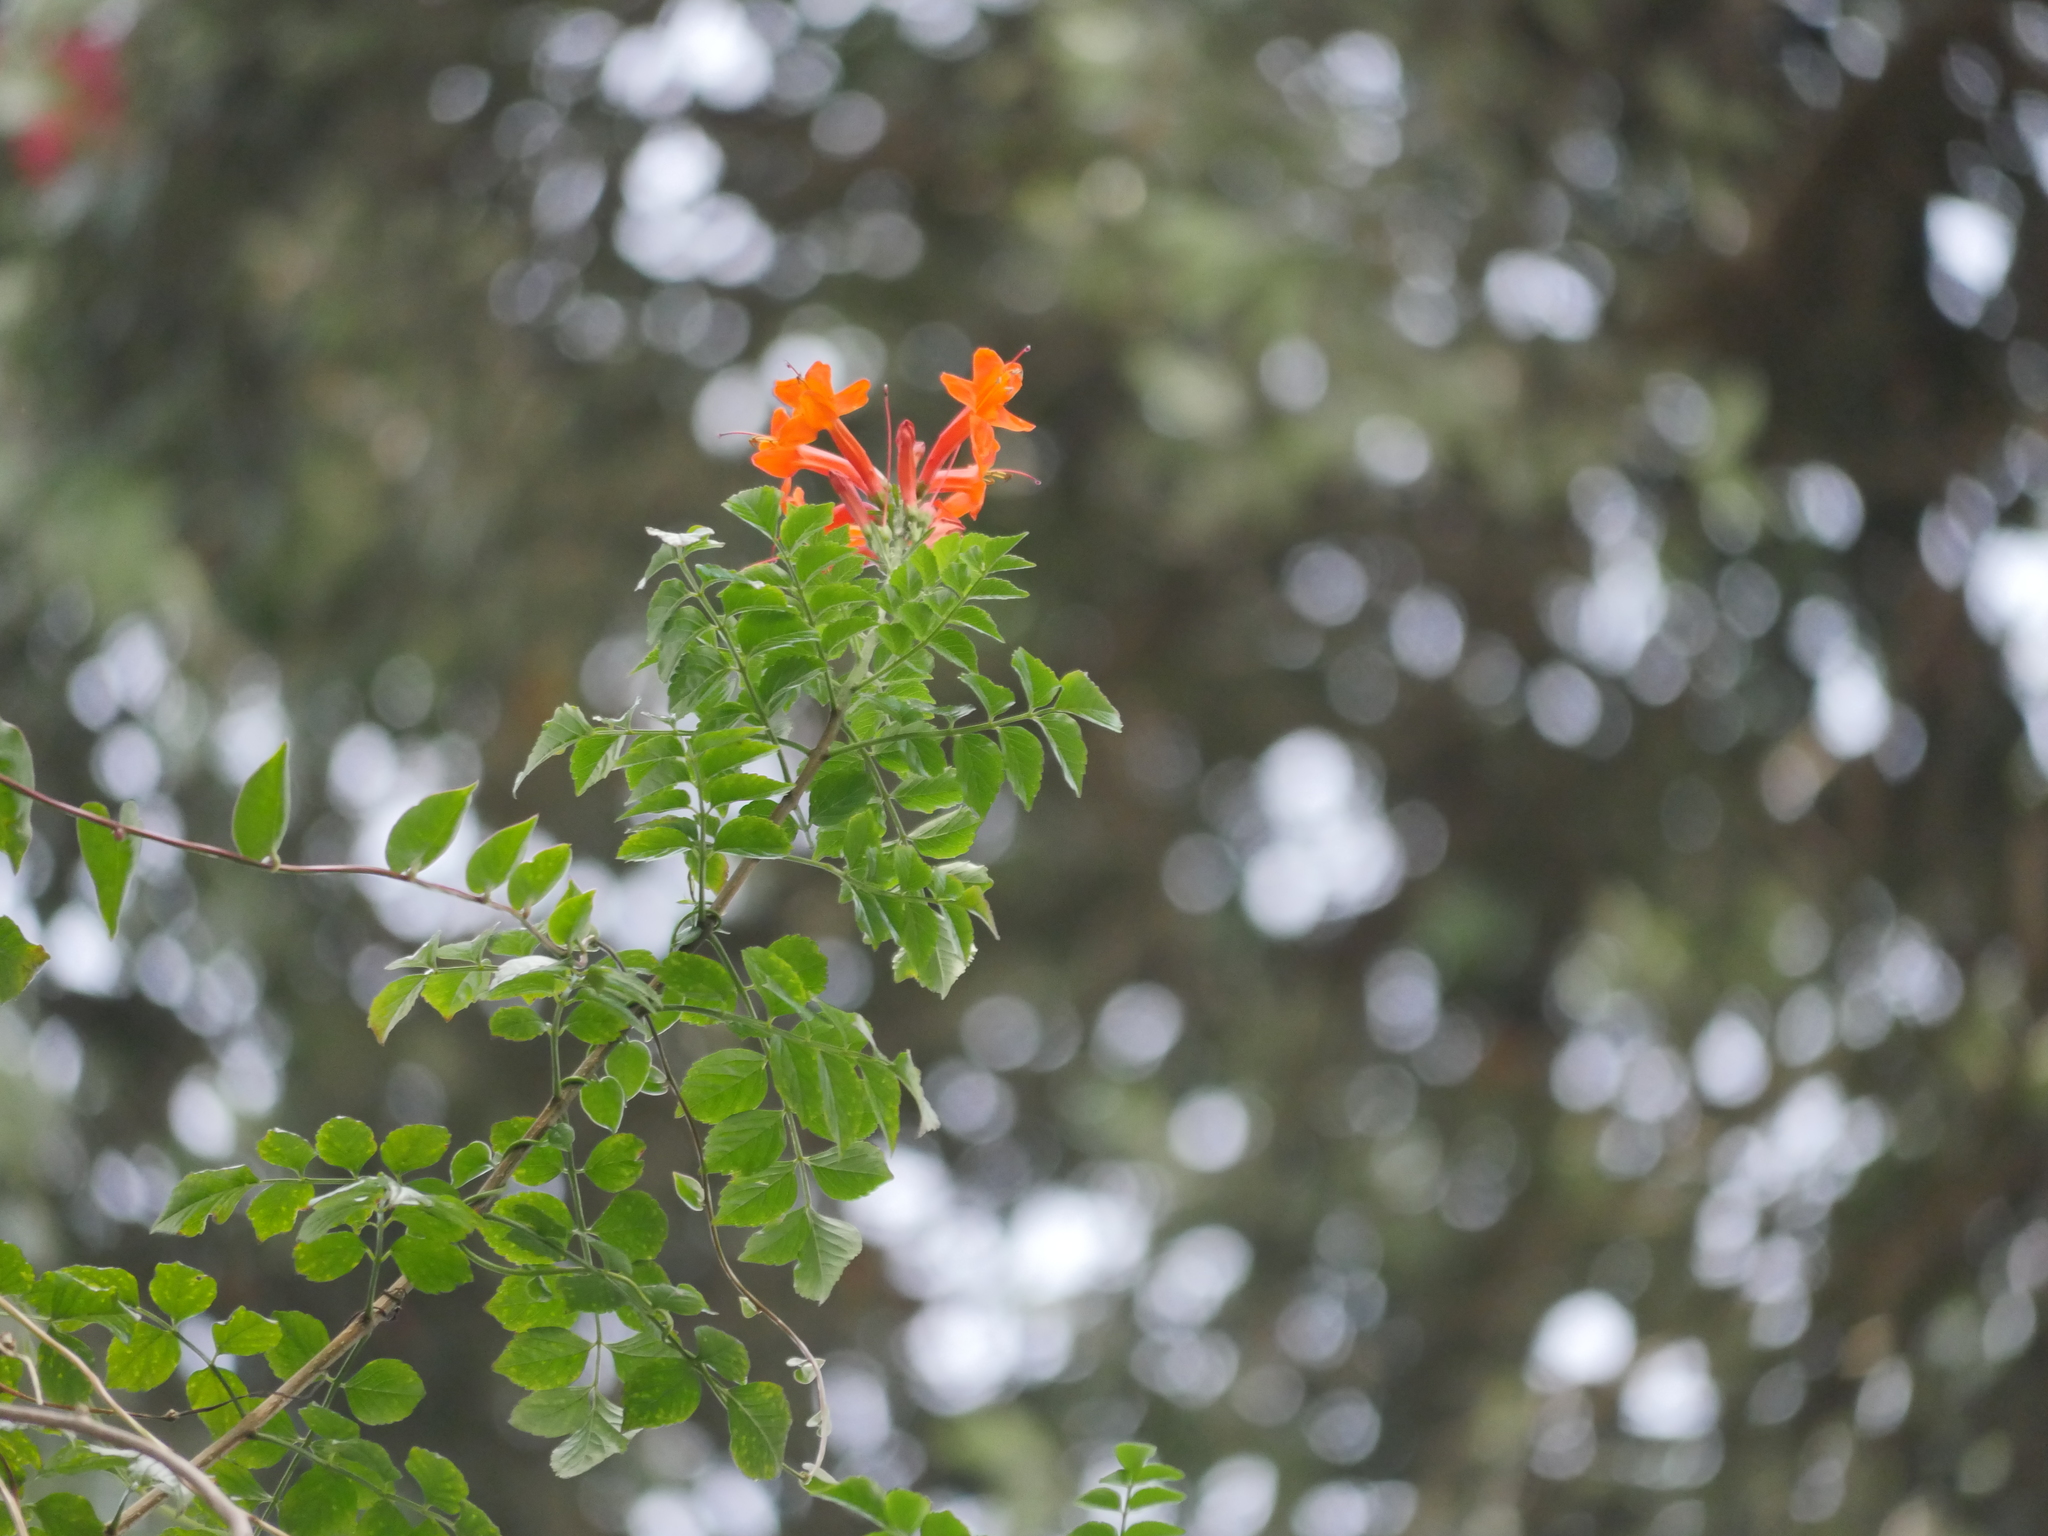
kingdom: Plantae
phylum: Tracheophyta
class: Magnoliopsida
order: Lamiales
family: Bignoniaceae
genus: Tecomaria
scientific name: Tecomaria capensis
